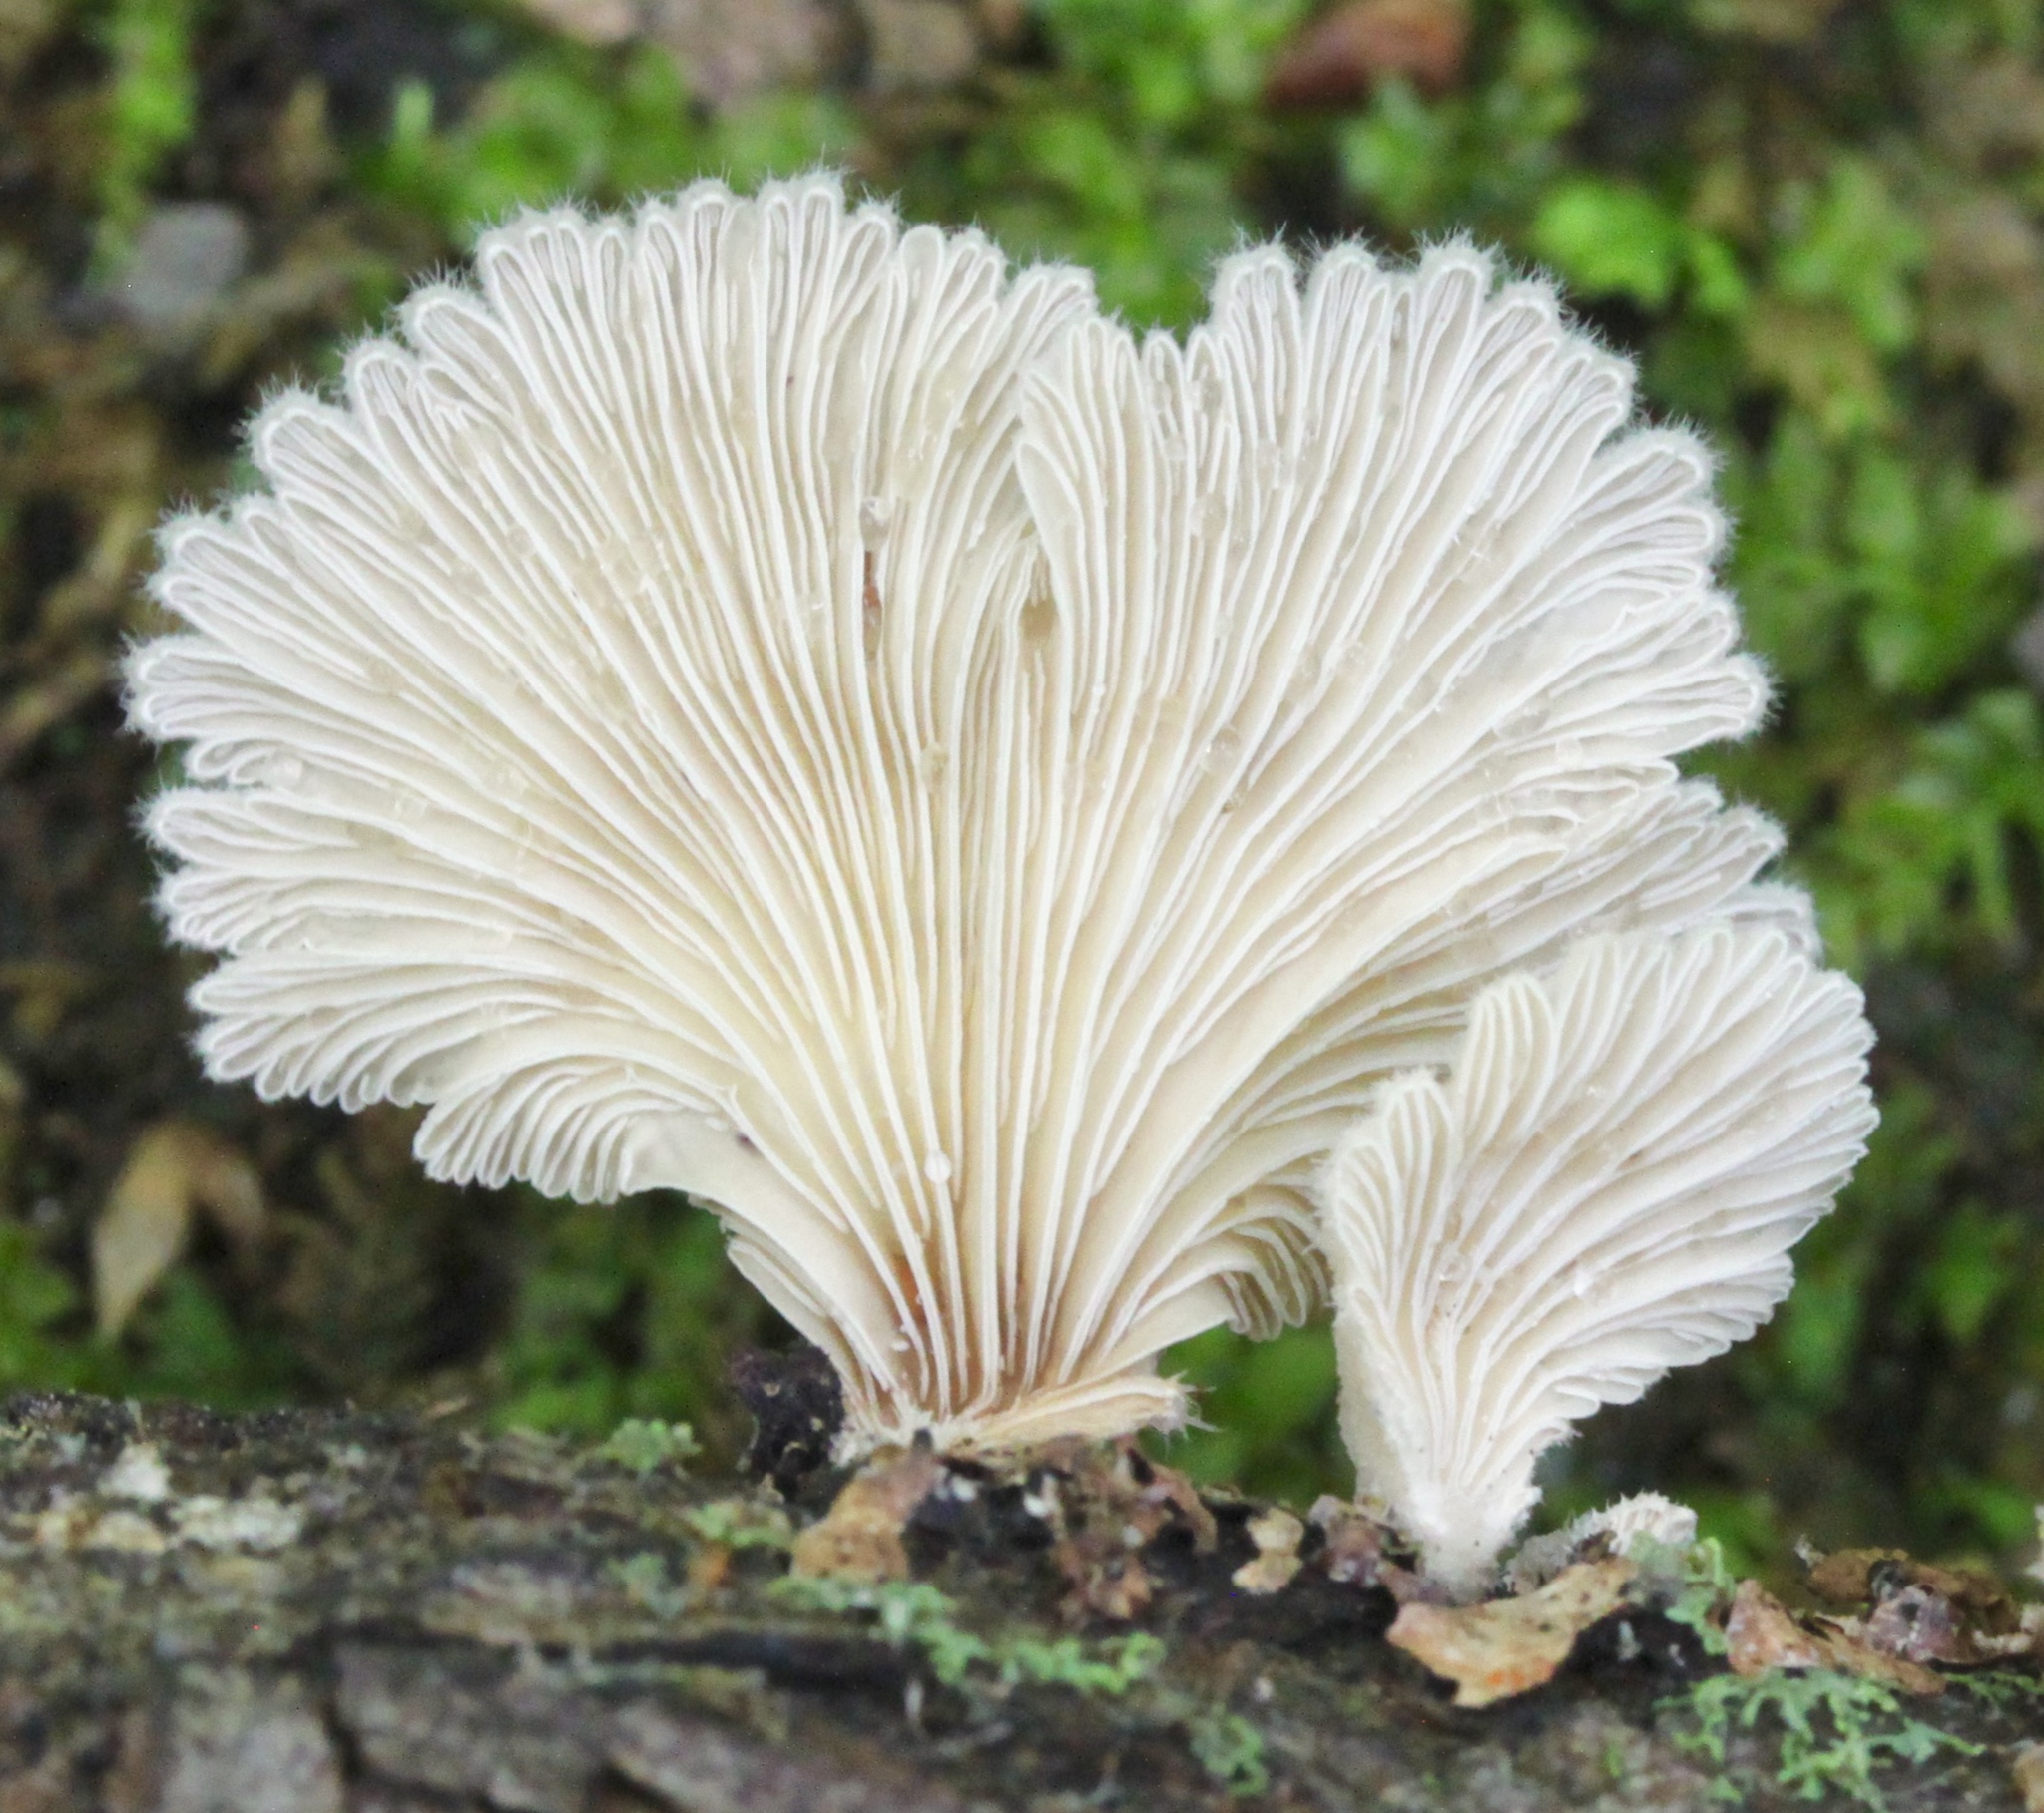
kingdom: Fungi
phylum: Basidiomycota
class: Agaricomycetes
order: Agaricales
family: Schizophyllaceae
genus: Schizophyllum
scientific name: Schizophyllum commune
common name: Common porecrust
